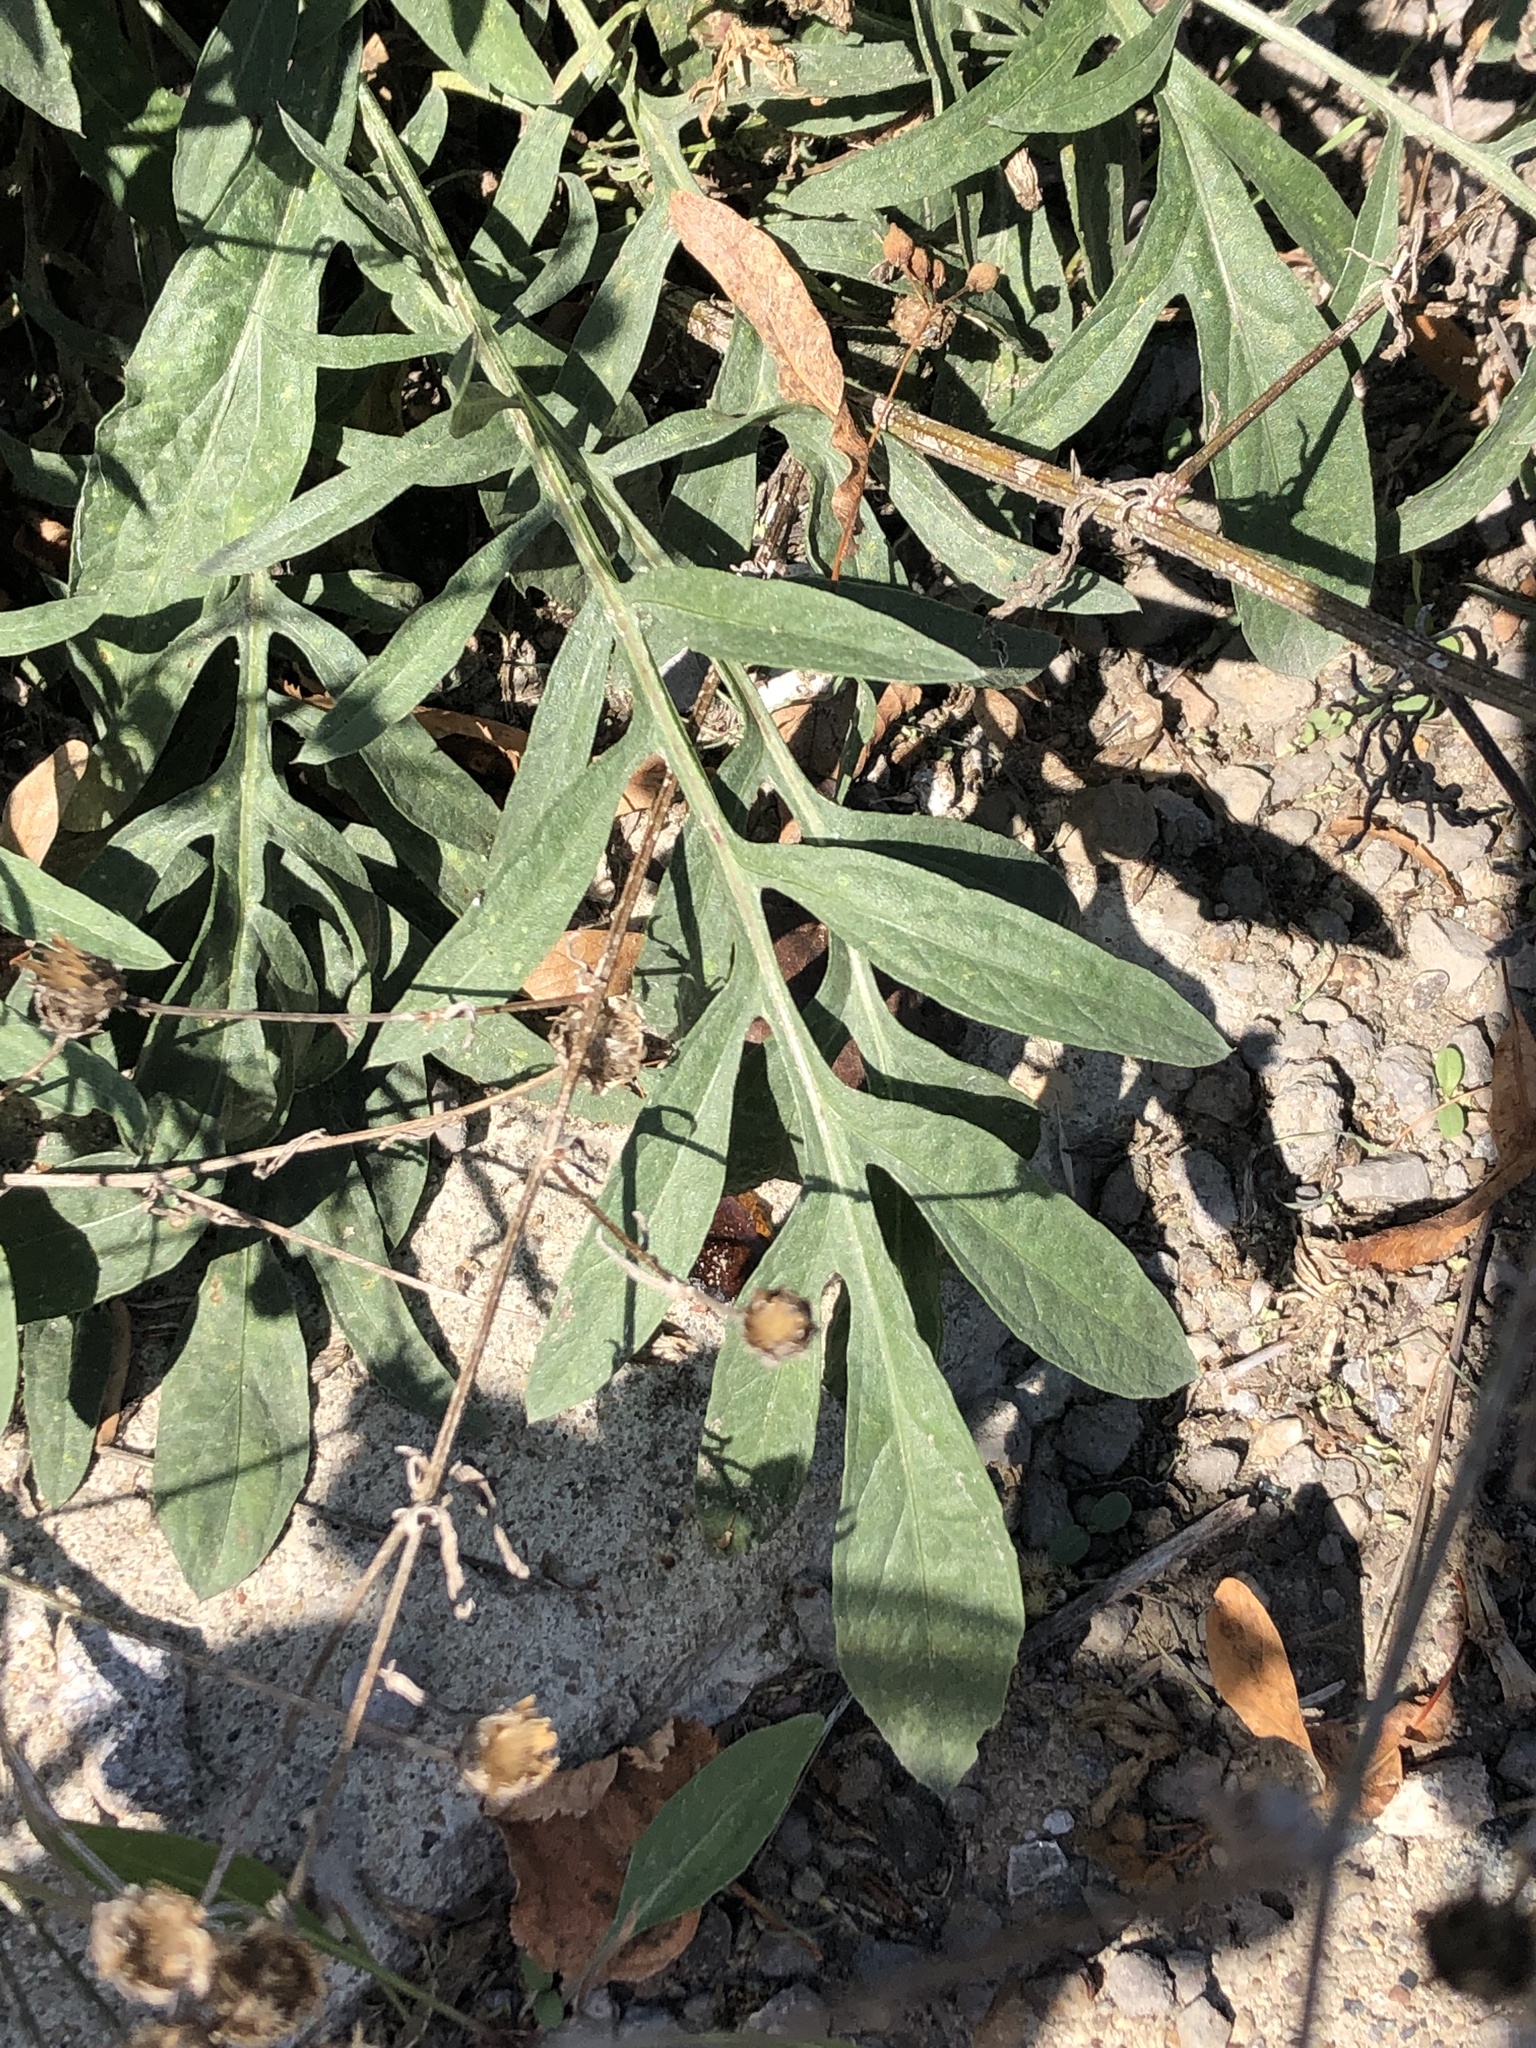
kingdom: Plantae
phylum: Tracheophyta
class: Magnoliopsida
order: Asterales
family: Asteraceae
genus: Centaurea
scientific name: Centaurea stoebe
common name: Spotted knapweed
